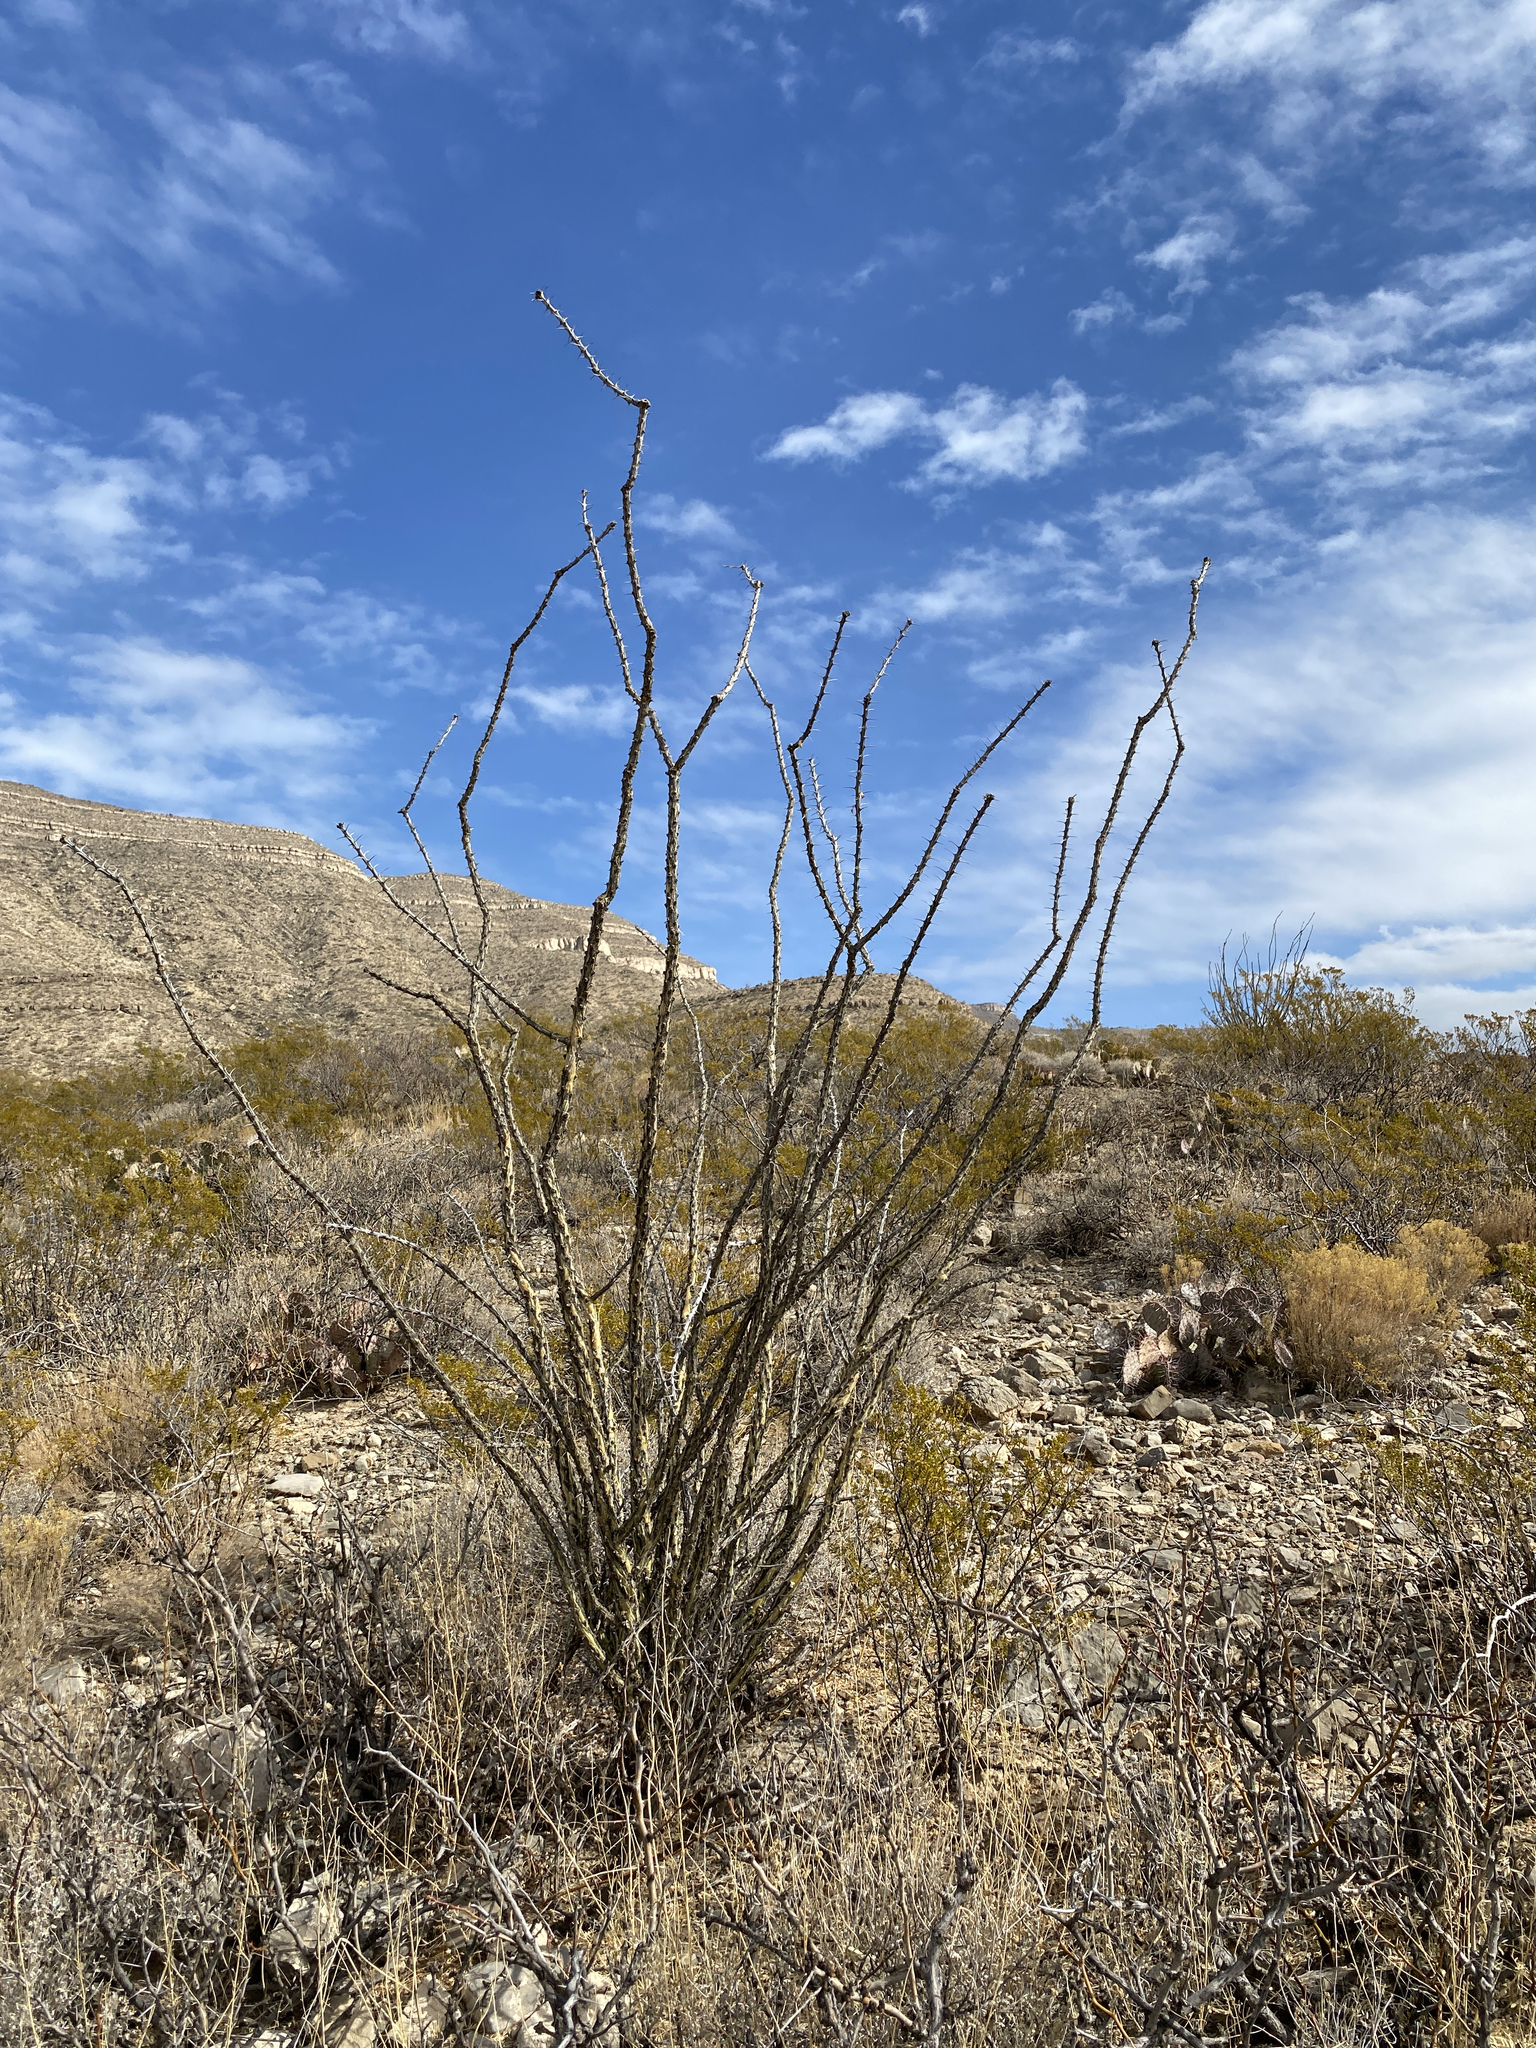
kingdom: Plantae
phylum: Tracheophyta
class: Magnoliopsida
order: Ericales
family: Fouquieriaceae
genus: Fouquieria
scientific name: Fouquieria splendens
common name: Vine-cactus
